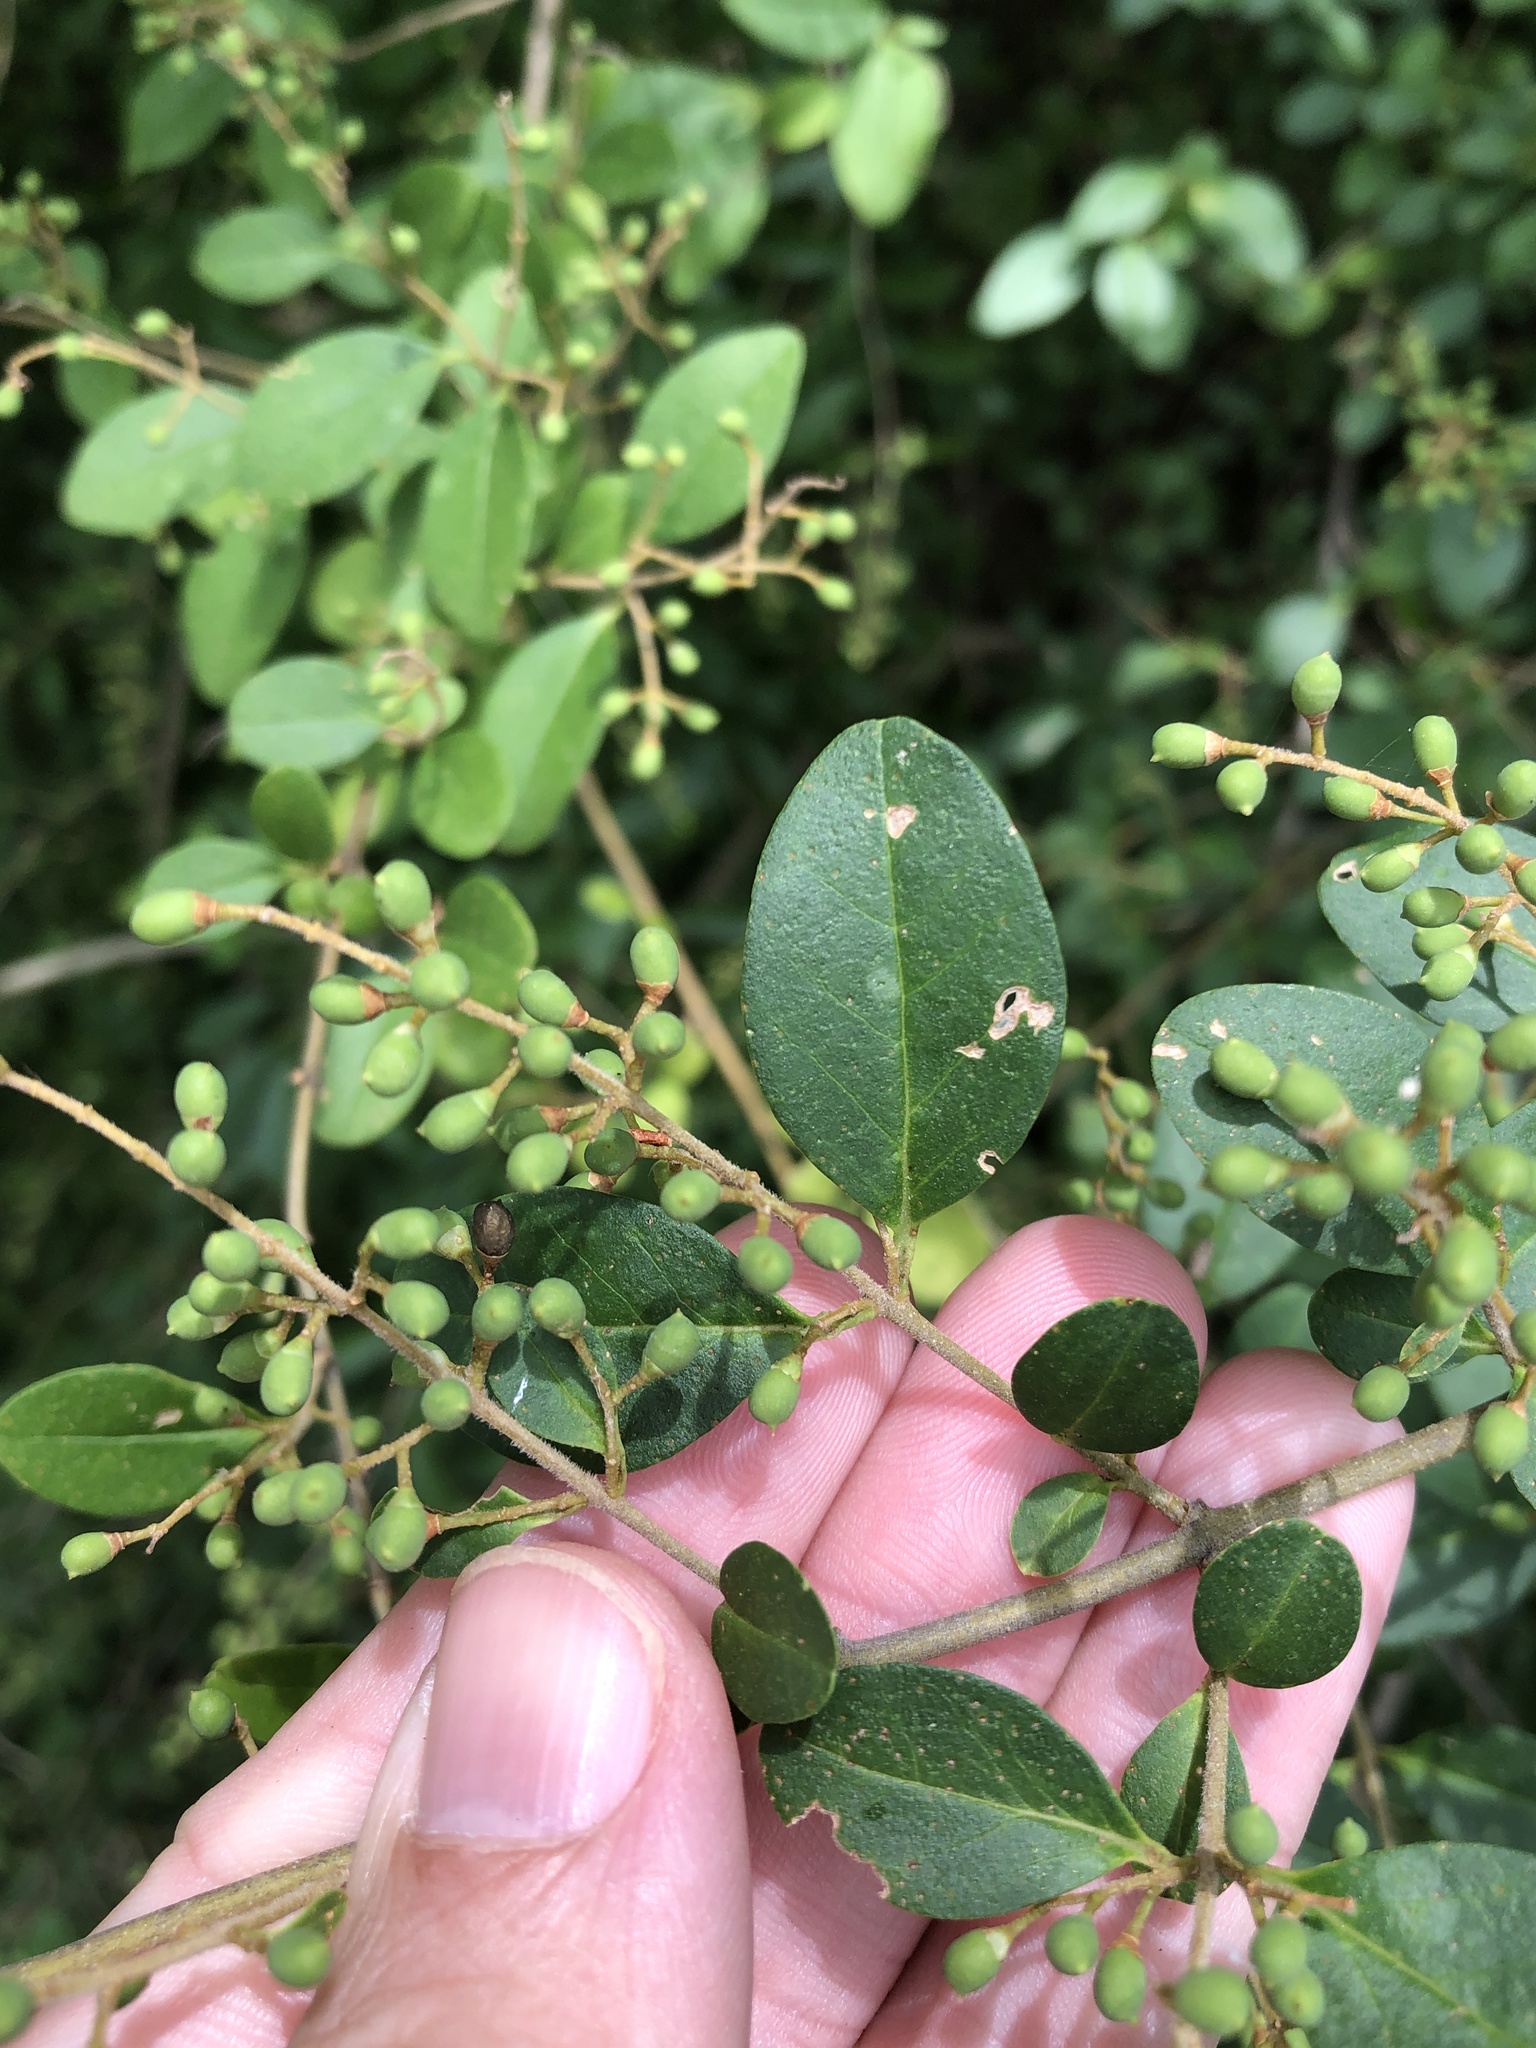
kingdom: Plantae
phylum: Tracheophyta
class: Magnoliopsida
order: Lamiales
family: Oleaceae
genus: Ligustrum
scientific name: Ligustrum sinense
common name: Chinese privet
